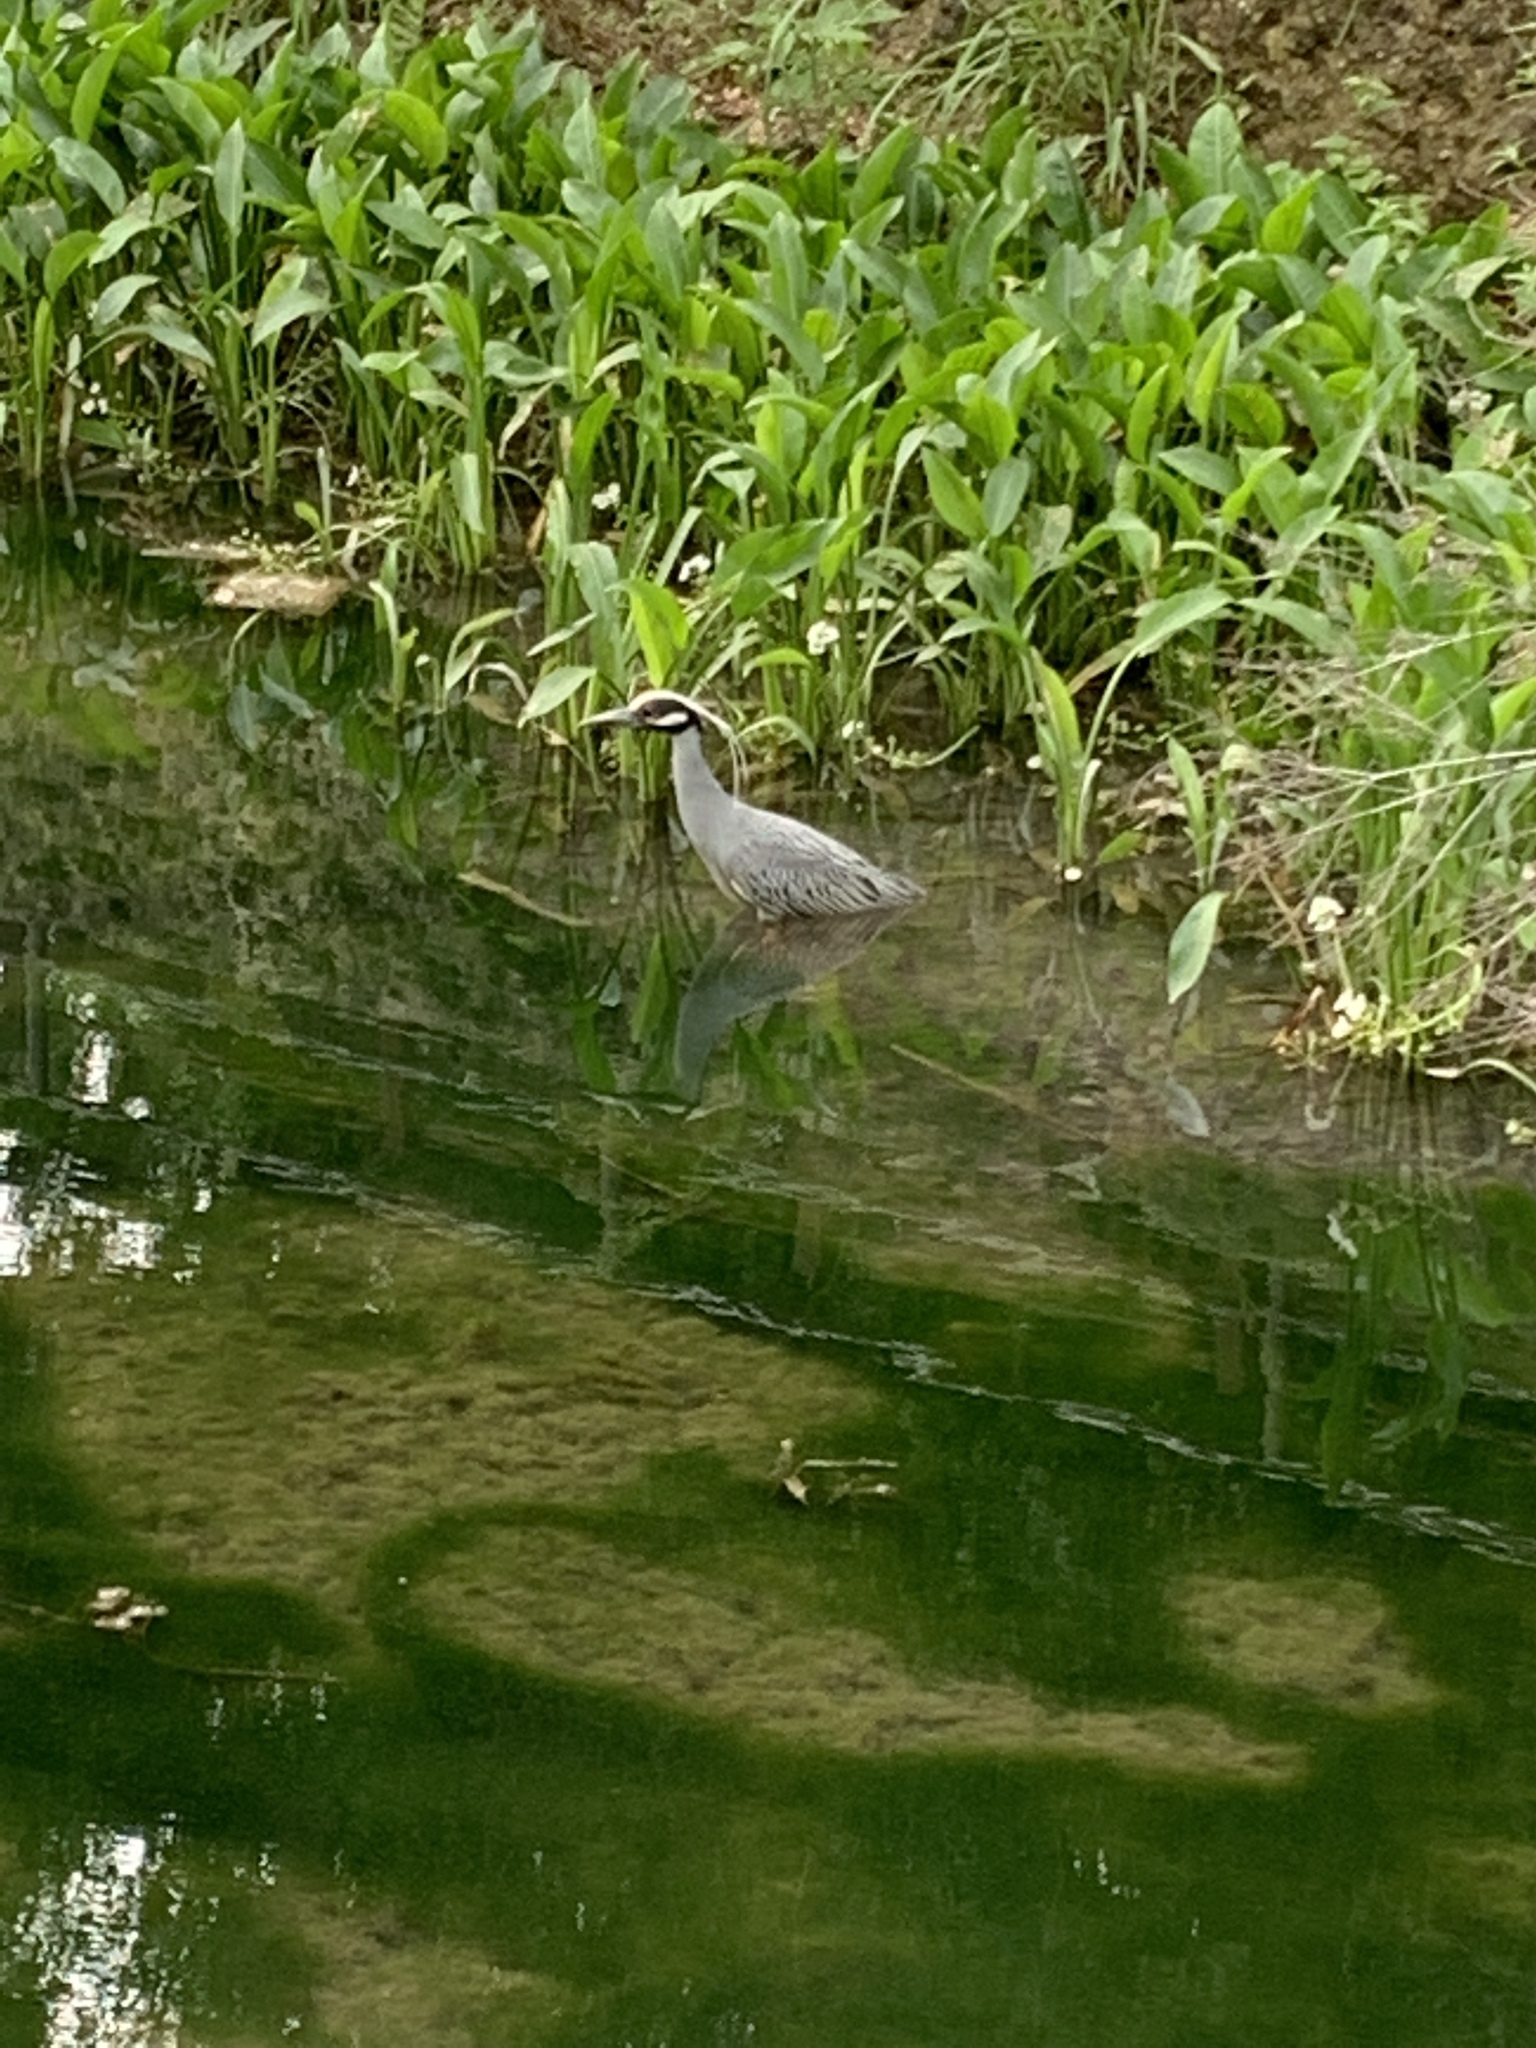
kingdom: Animalia
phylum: Chordata
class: Aves
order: Pelecaniformes
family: Ardeidae
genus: Nyctanassa
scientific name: Nyctanassa violacea
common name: Yellow-crowned night heron
